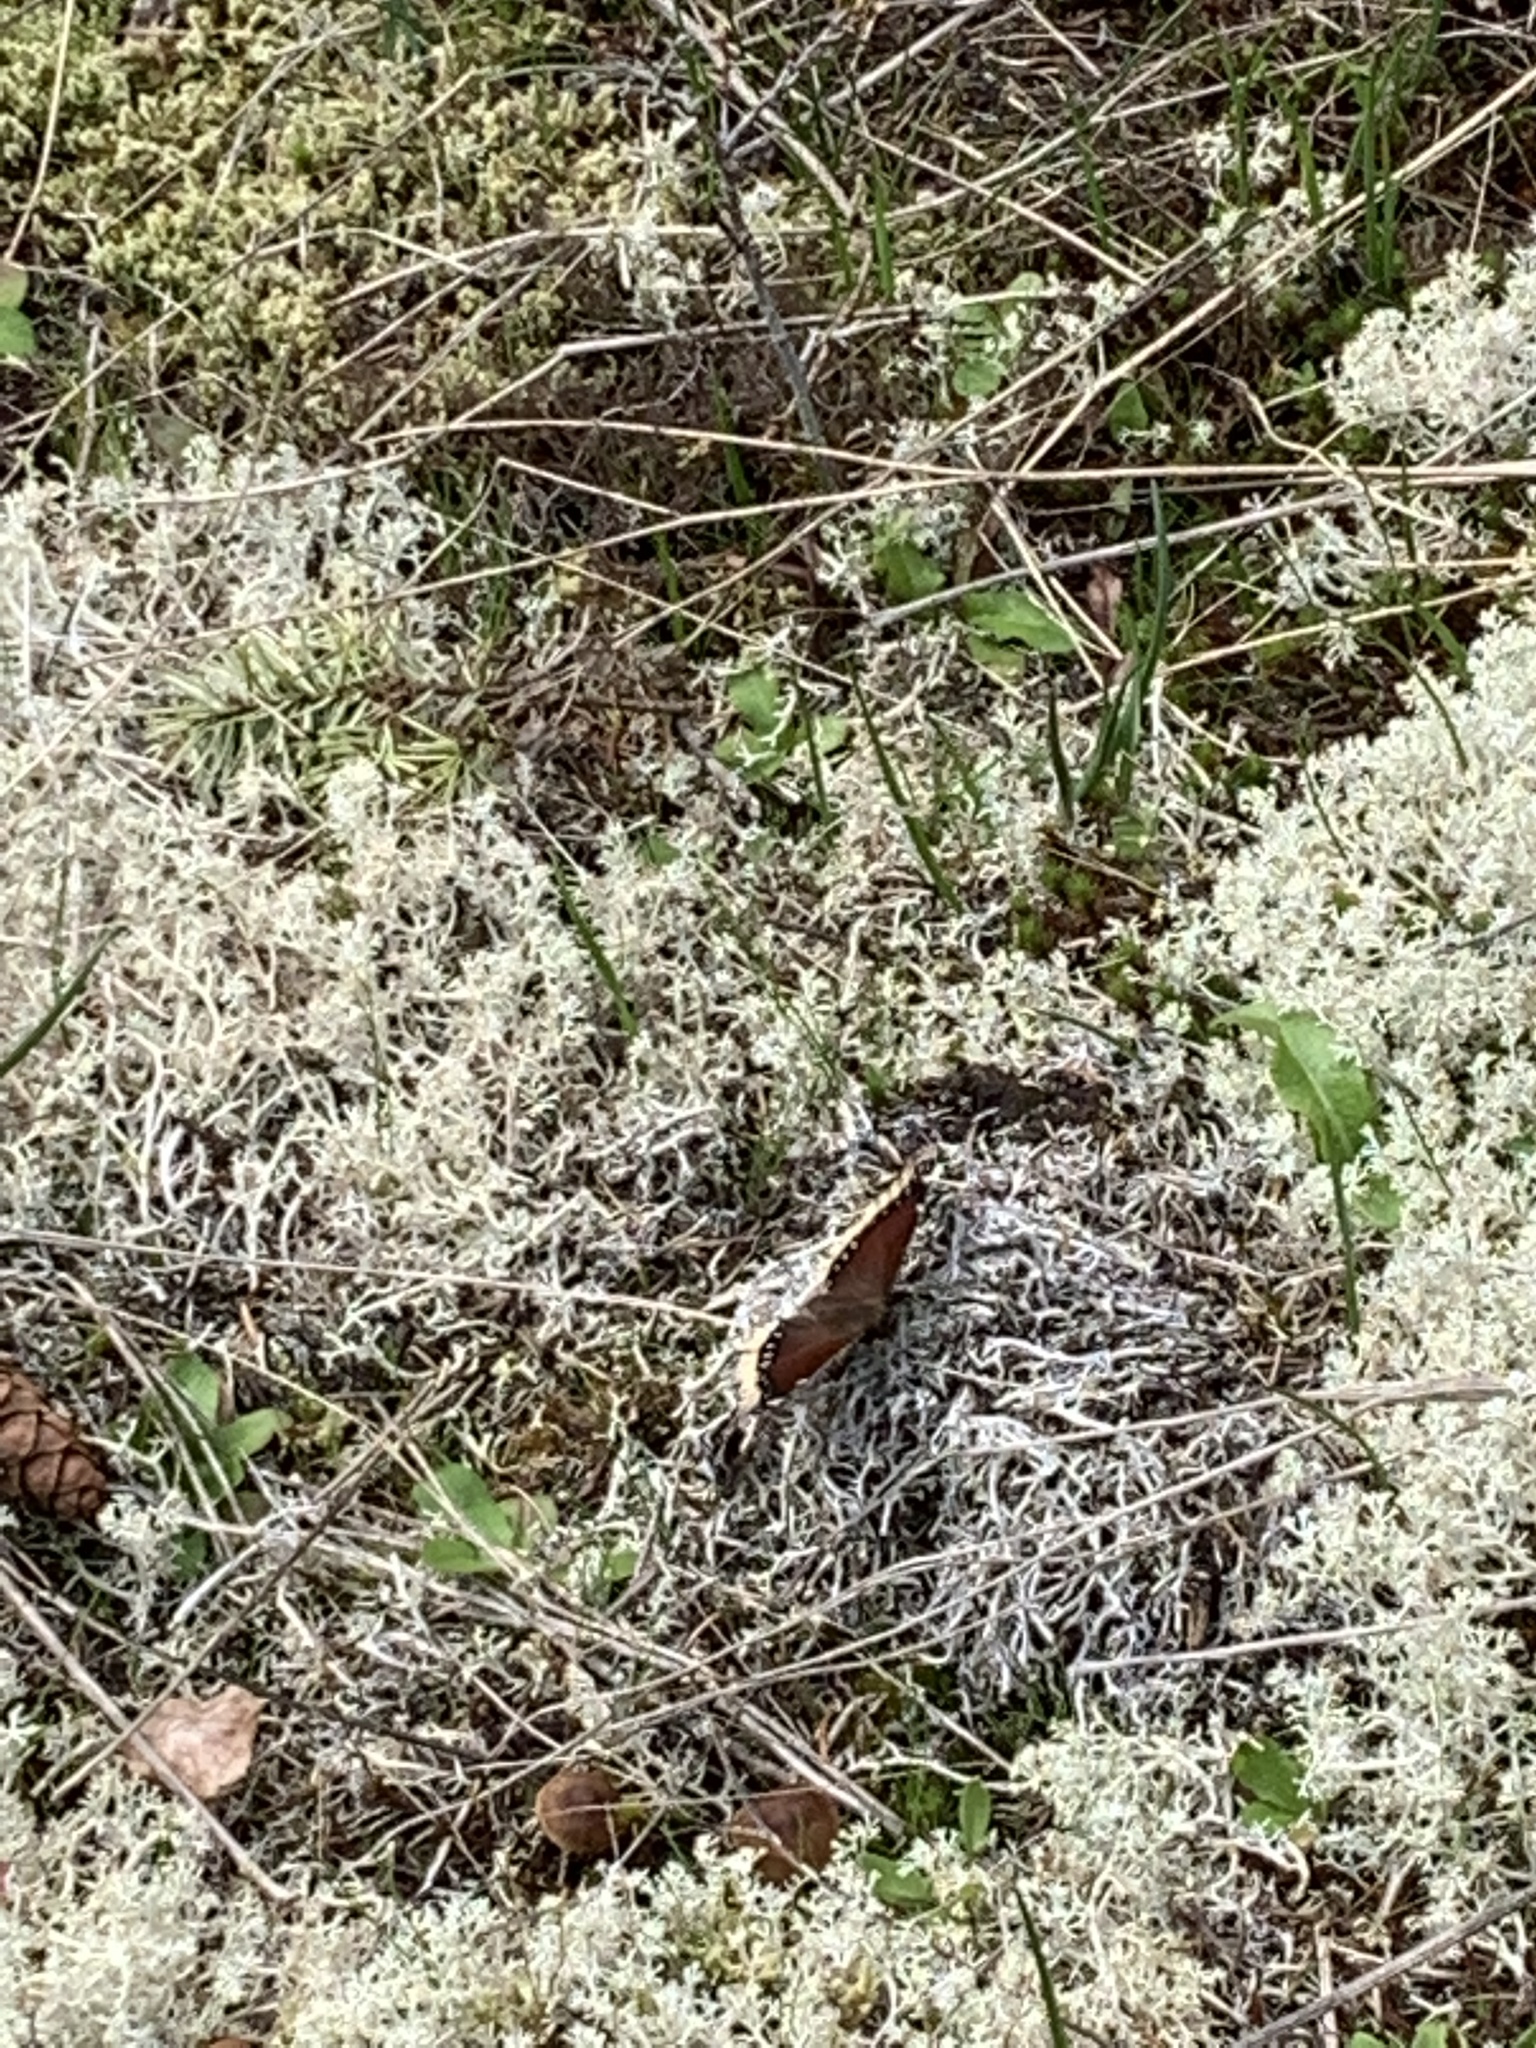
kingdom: Animalia
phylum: Arthropoda
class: Insecta
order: Lepidoptera
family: Nymphalidae
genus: Nymphalis
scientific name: Nymphalis antiopa
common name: Camberwell beauty
